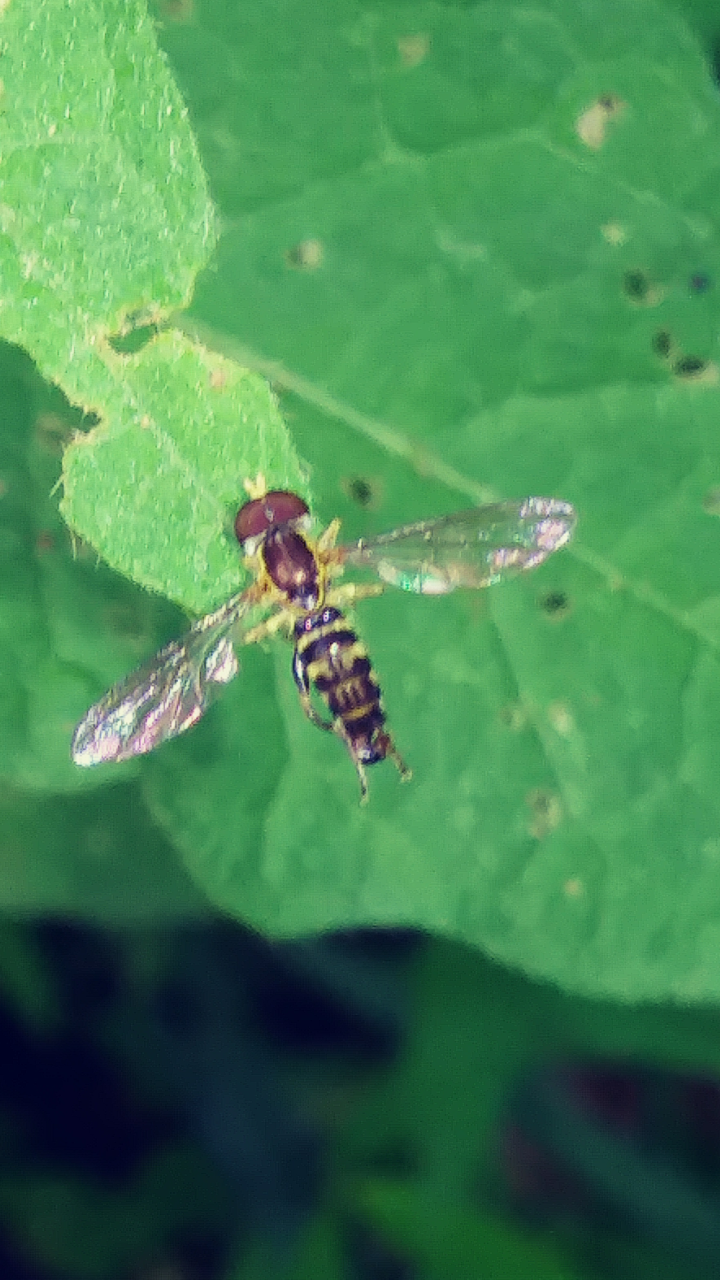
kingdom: Animalia
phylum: Arthropoda
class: Insecta
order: Diptera
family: Syrphidae
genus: Toxomerus
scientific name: Toxomerus geminatus
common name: Eastern calligrapher
